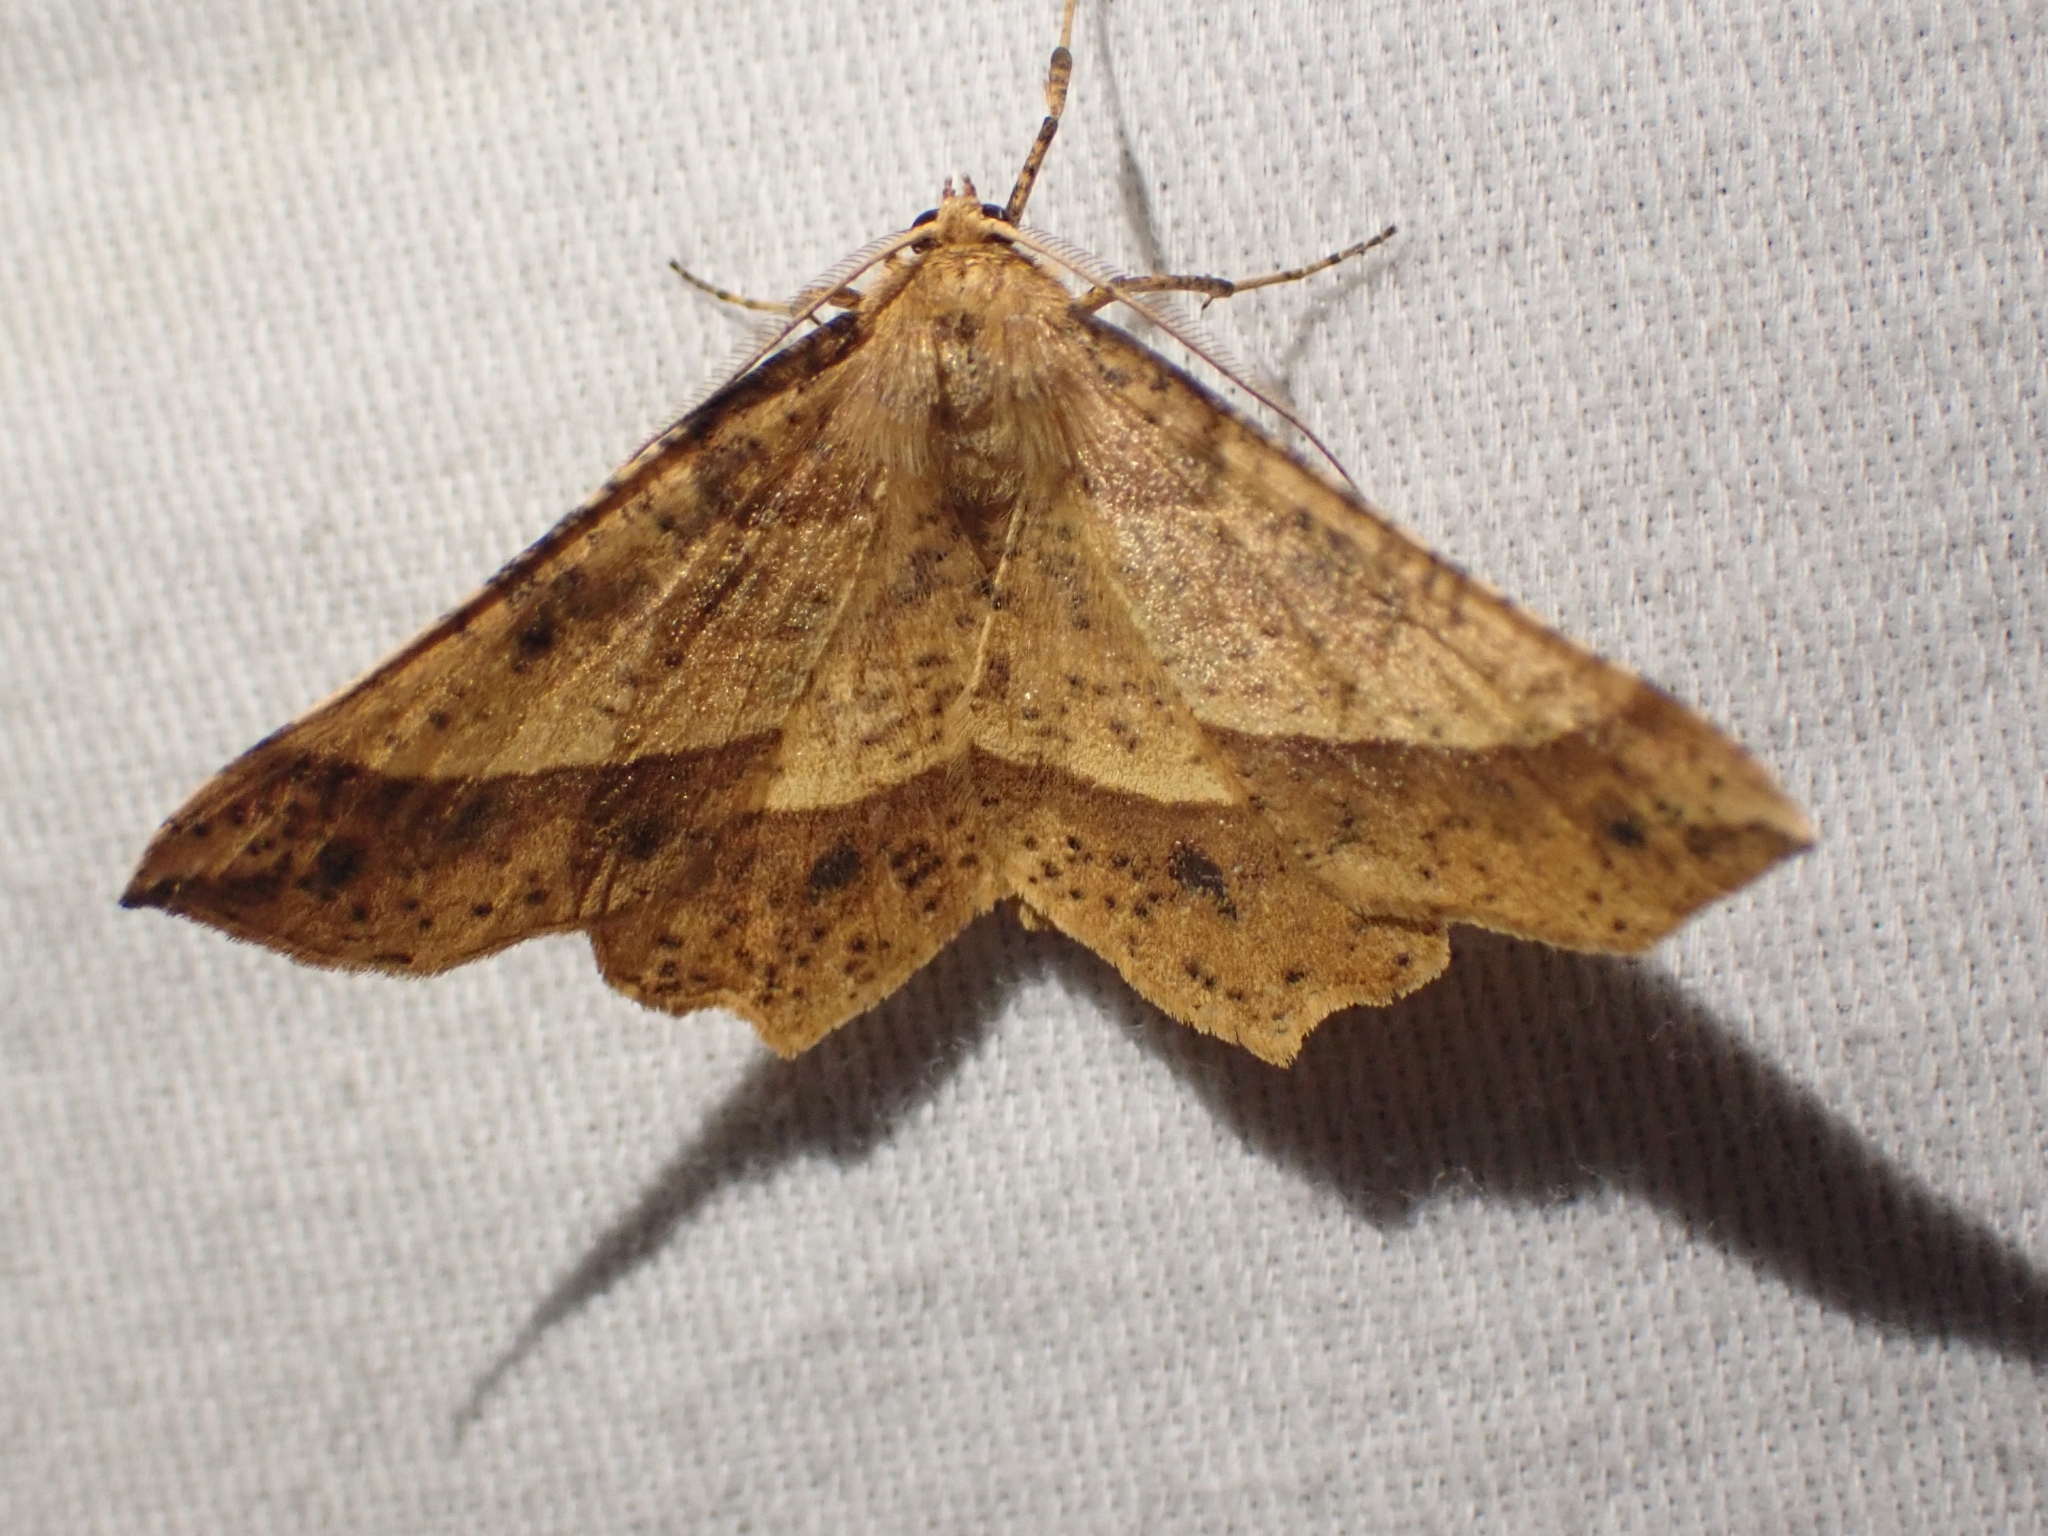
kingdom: Animalia
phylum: Arthropoda
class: Insecta
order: Lepidoptera
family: Geometridae
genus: Euchlaena
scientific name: Euchlaena tigrinaria
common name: Mottled euchlaena moth
